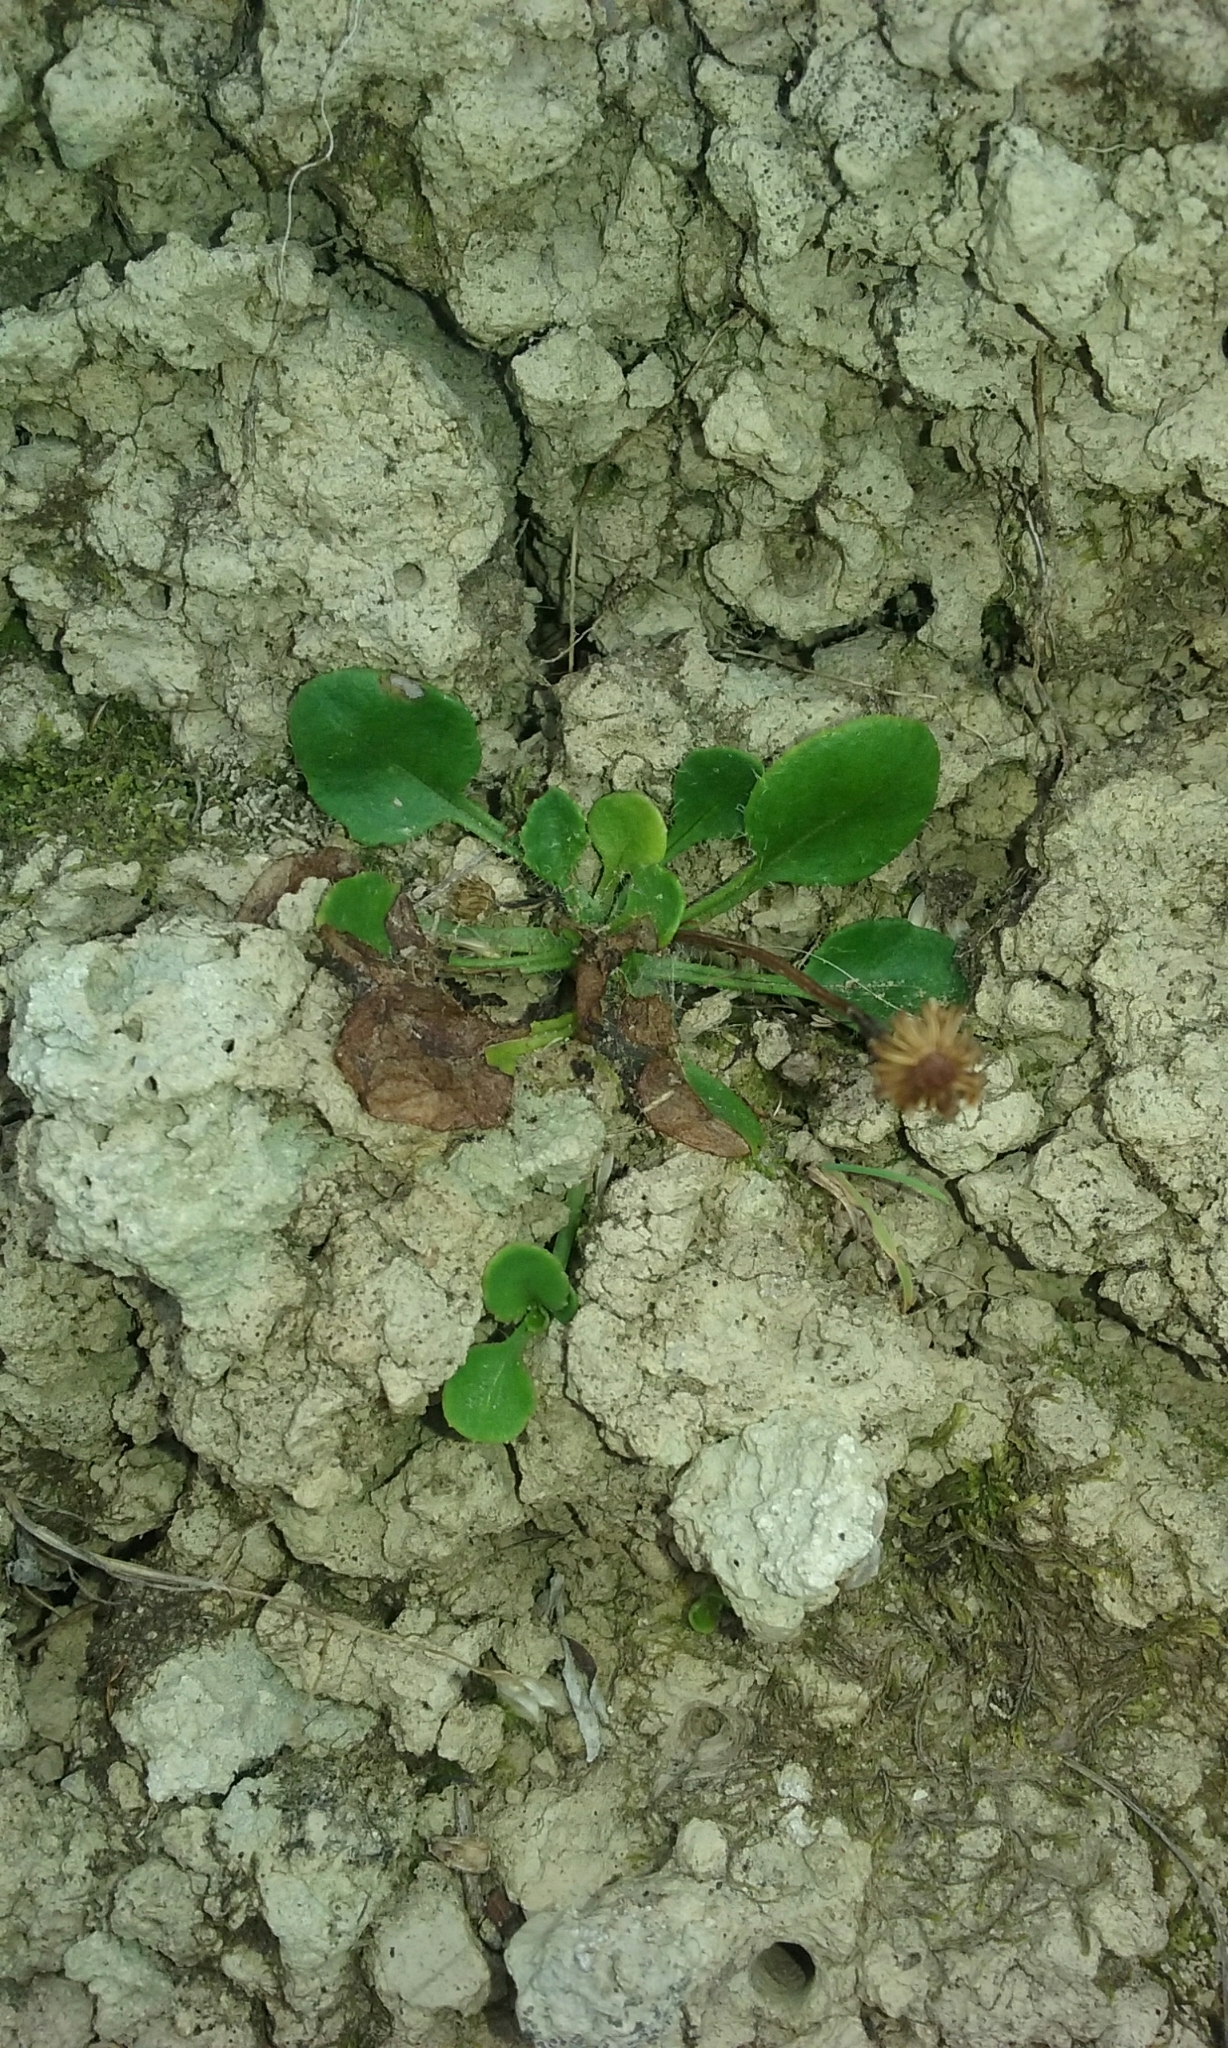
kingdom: Plantae
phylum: Tracheophyta
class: Magnoliopsida
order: Asterales
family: Asteraceae
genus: Lagenophora
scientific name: Lagenophora pumila
